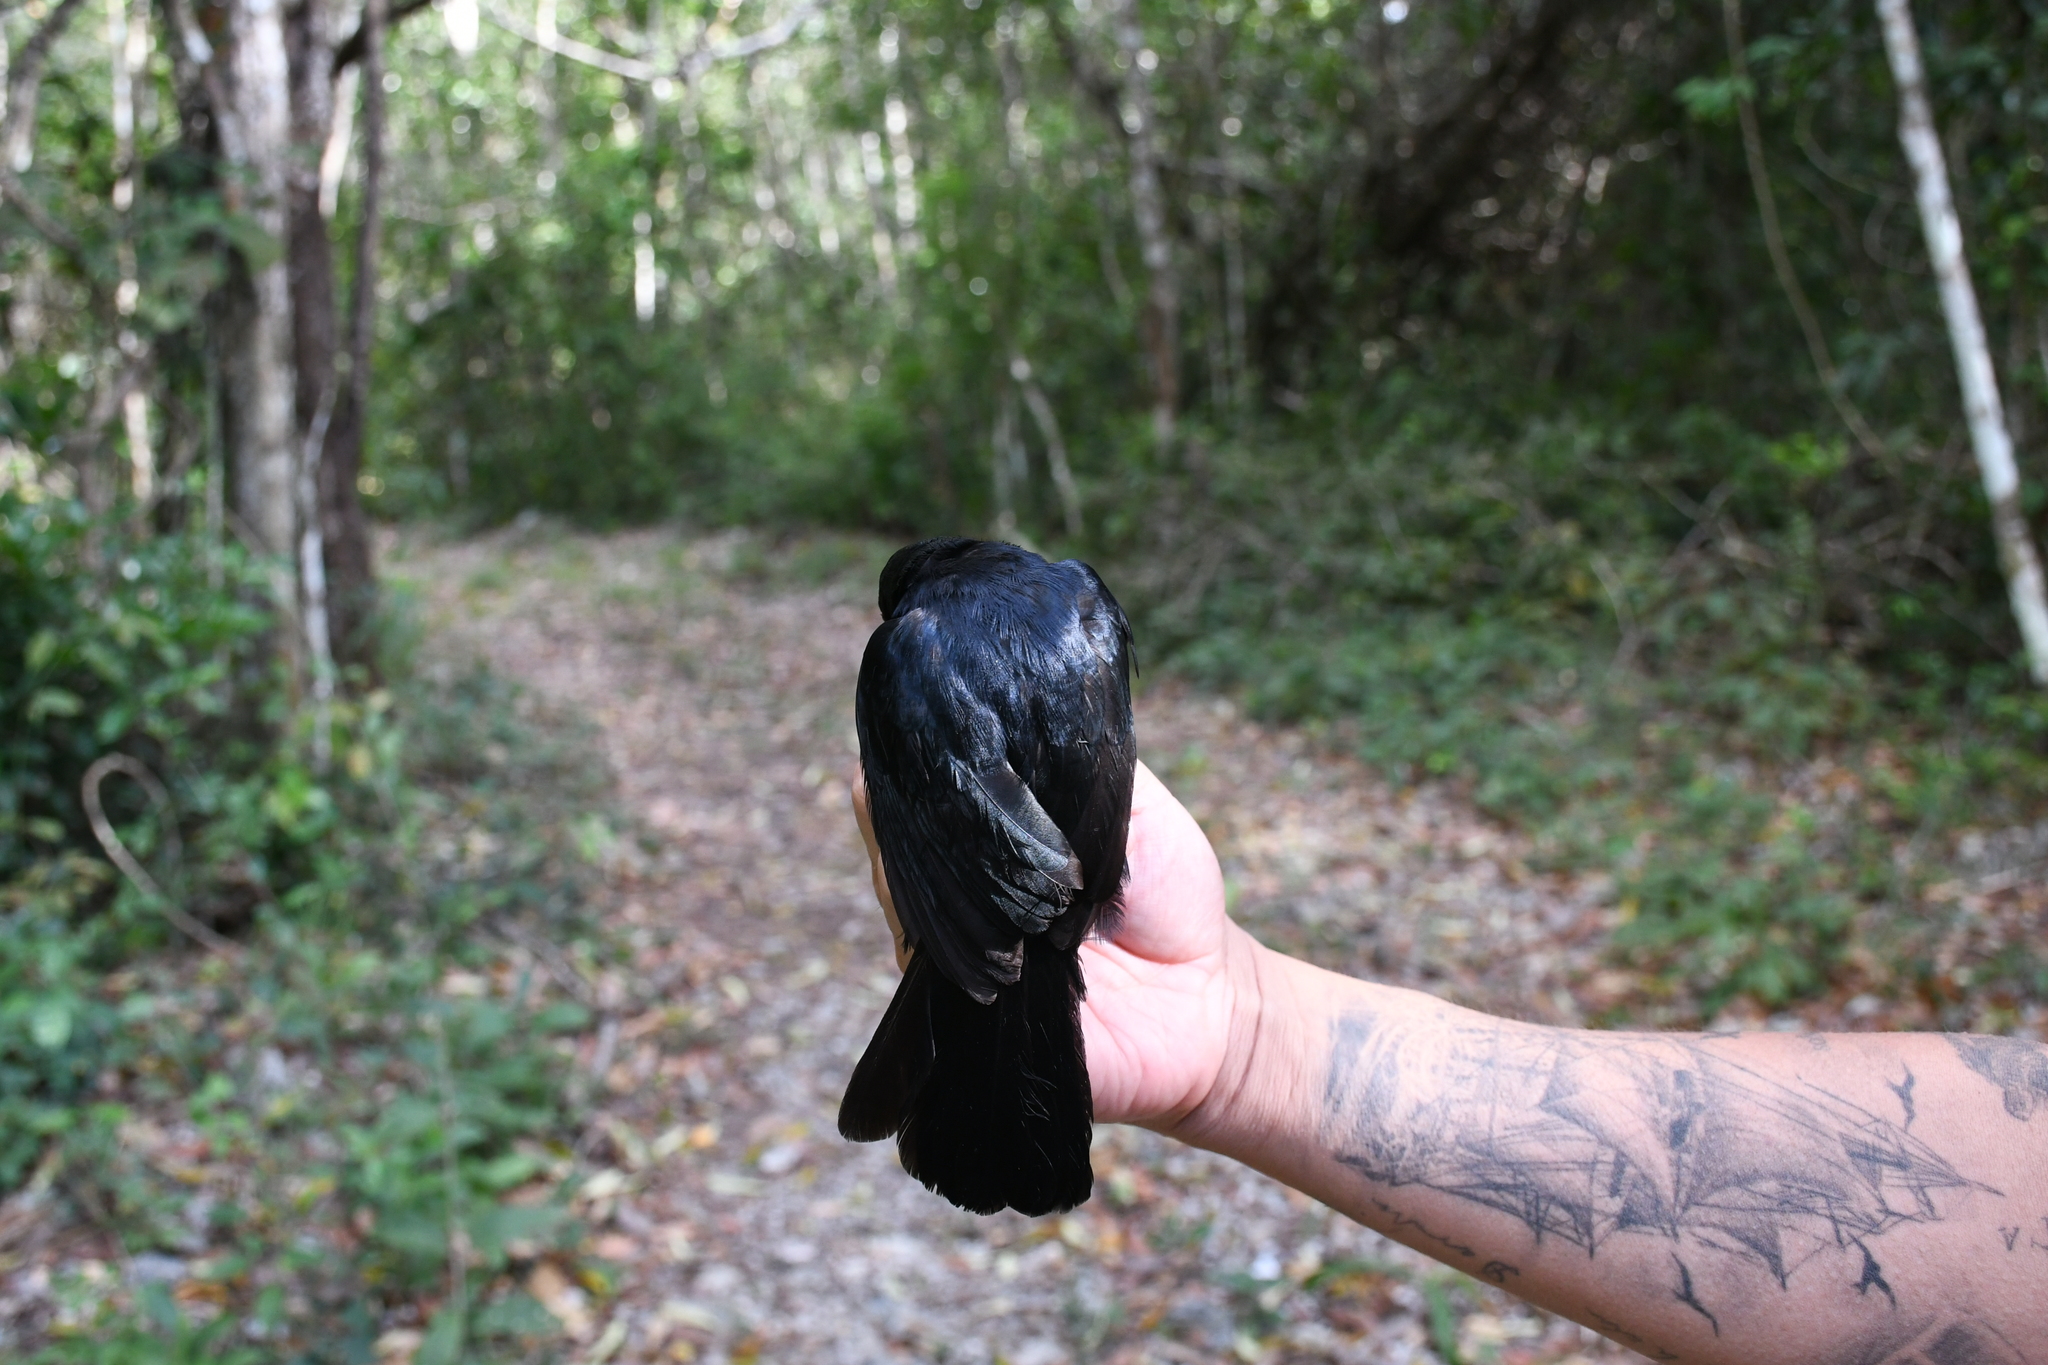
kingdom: Animalia
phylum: Chordata
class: Aves
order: Passeriformes
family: Mimidae
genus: Melanoptila
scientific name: Melanoptila glabrirostris
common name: Black catbird
